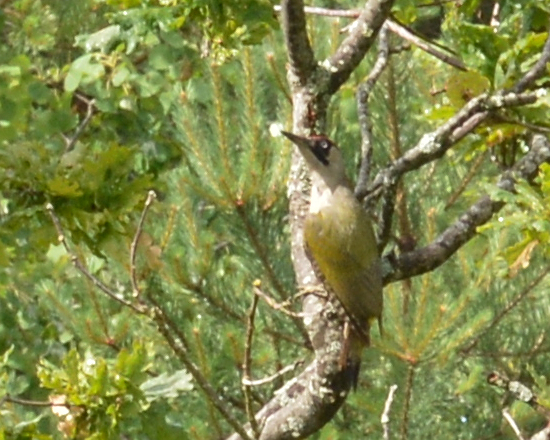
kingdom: Animalia
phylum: Chordata
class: Aves
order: Piciformes
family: Picidae
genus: Picus
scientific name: Picus viridis
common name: European green woodpecker
